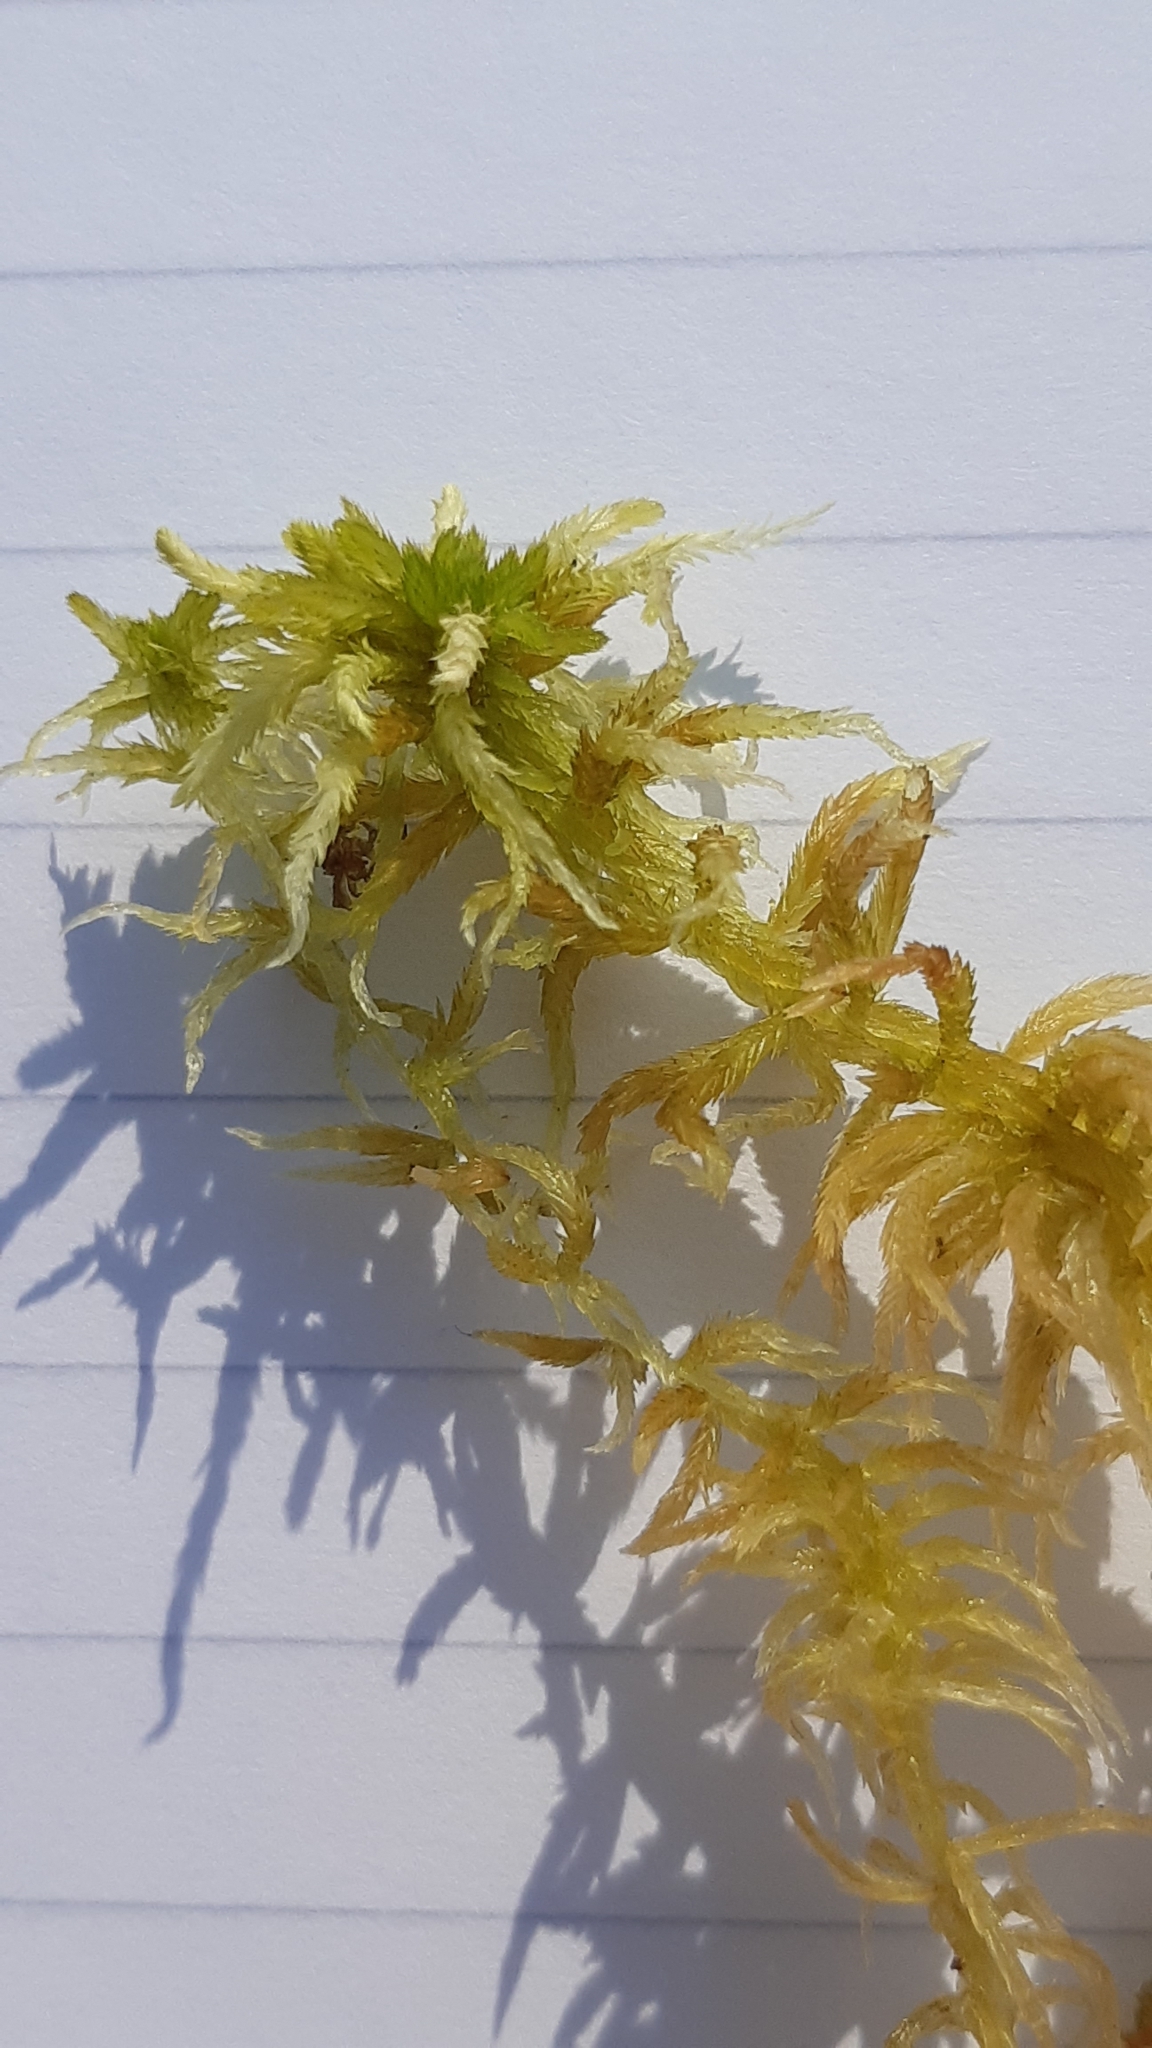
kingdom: Plantae
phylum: Bryophyta
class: Sphagnopsida
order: Sphagnales
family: Sphagnaceae
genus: Sphagnum
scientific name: Sphagnum fallax
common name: Flat-top peat moss
